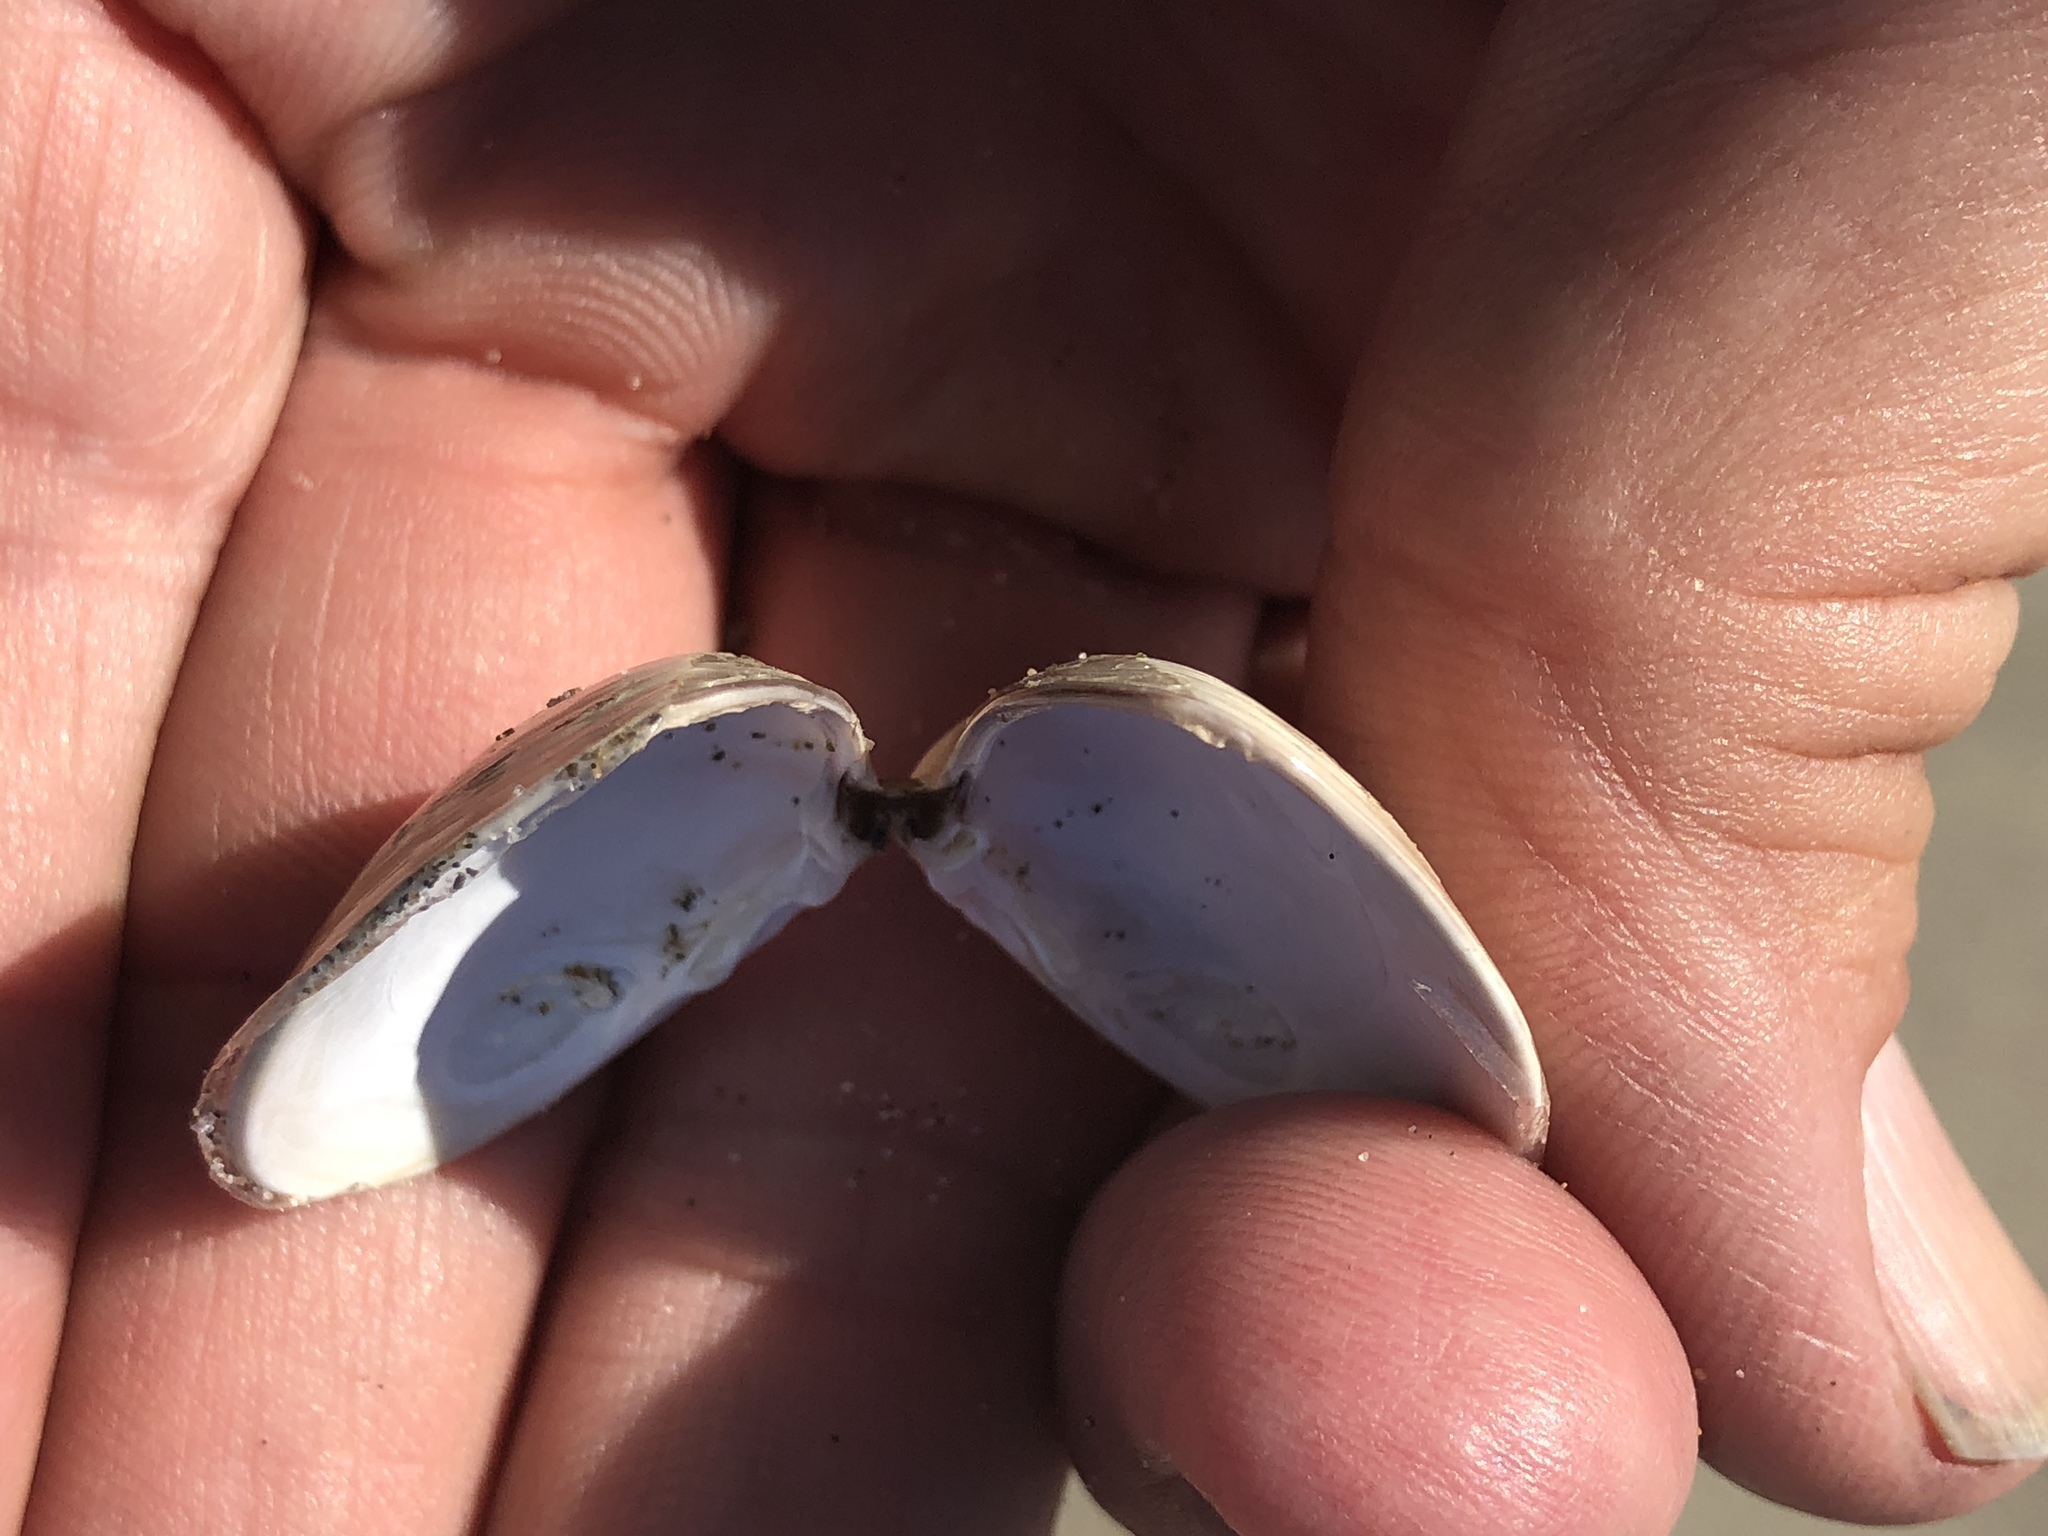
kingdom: Animalia
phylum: Mollusca
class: Bivalvia
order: Venerida
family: Veneridae
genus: Tivela
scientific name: Tivela stultorum
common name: Pismo clam
